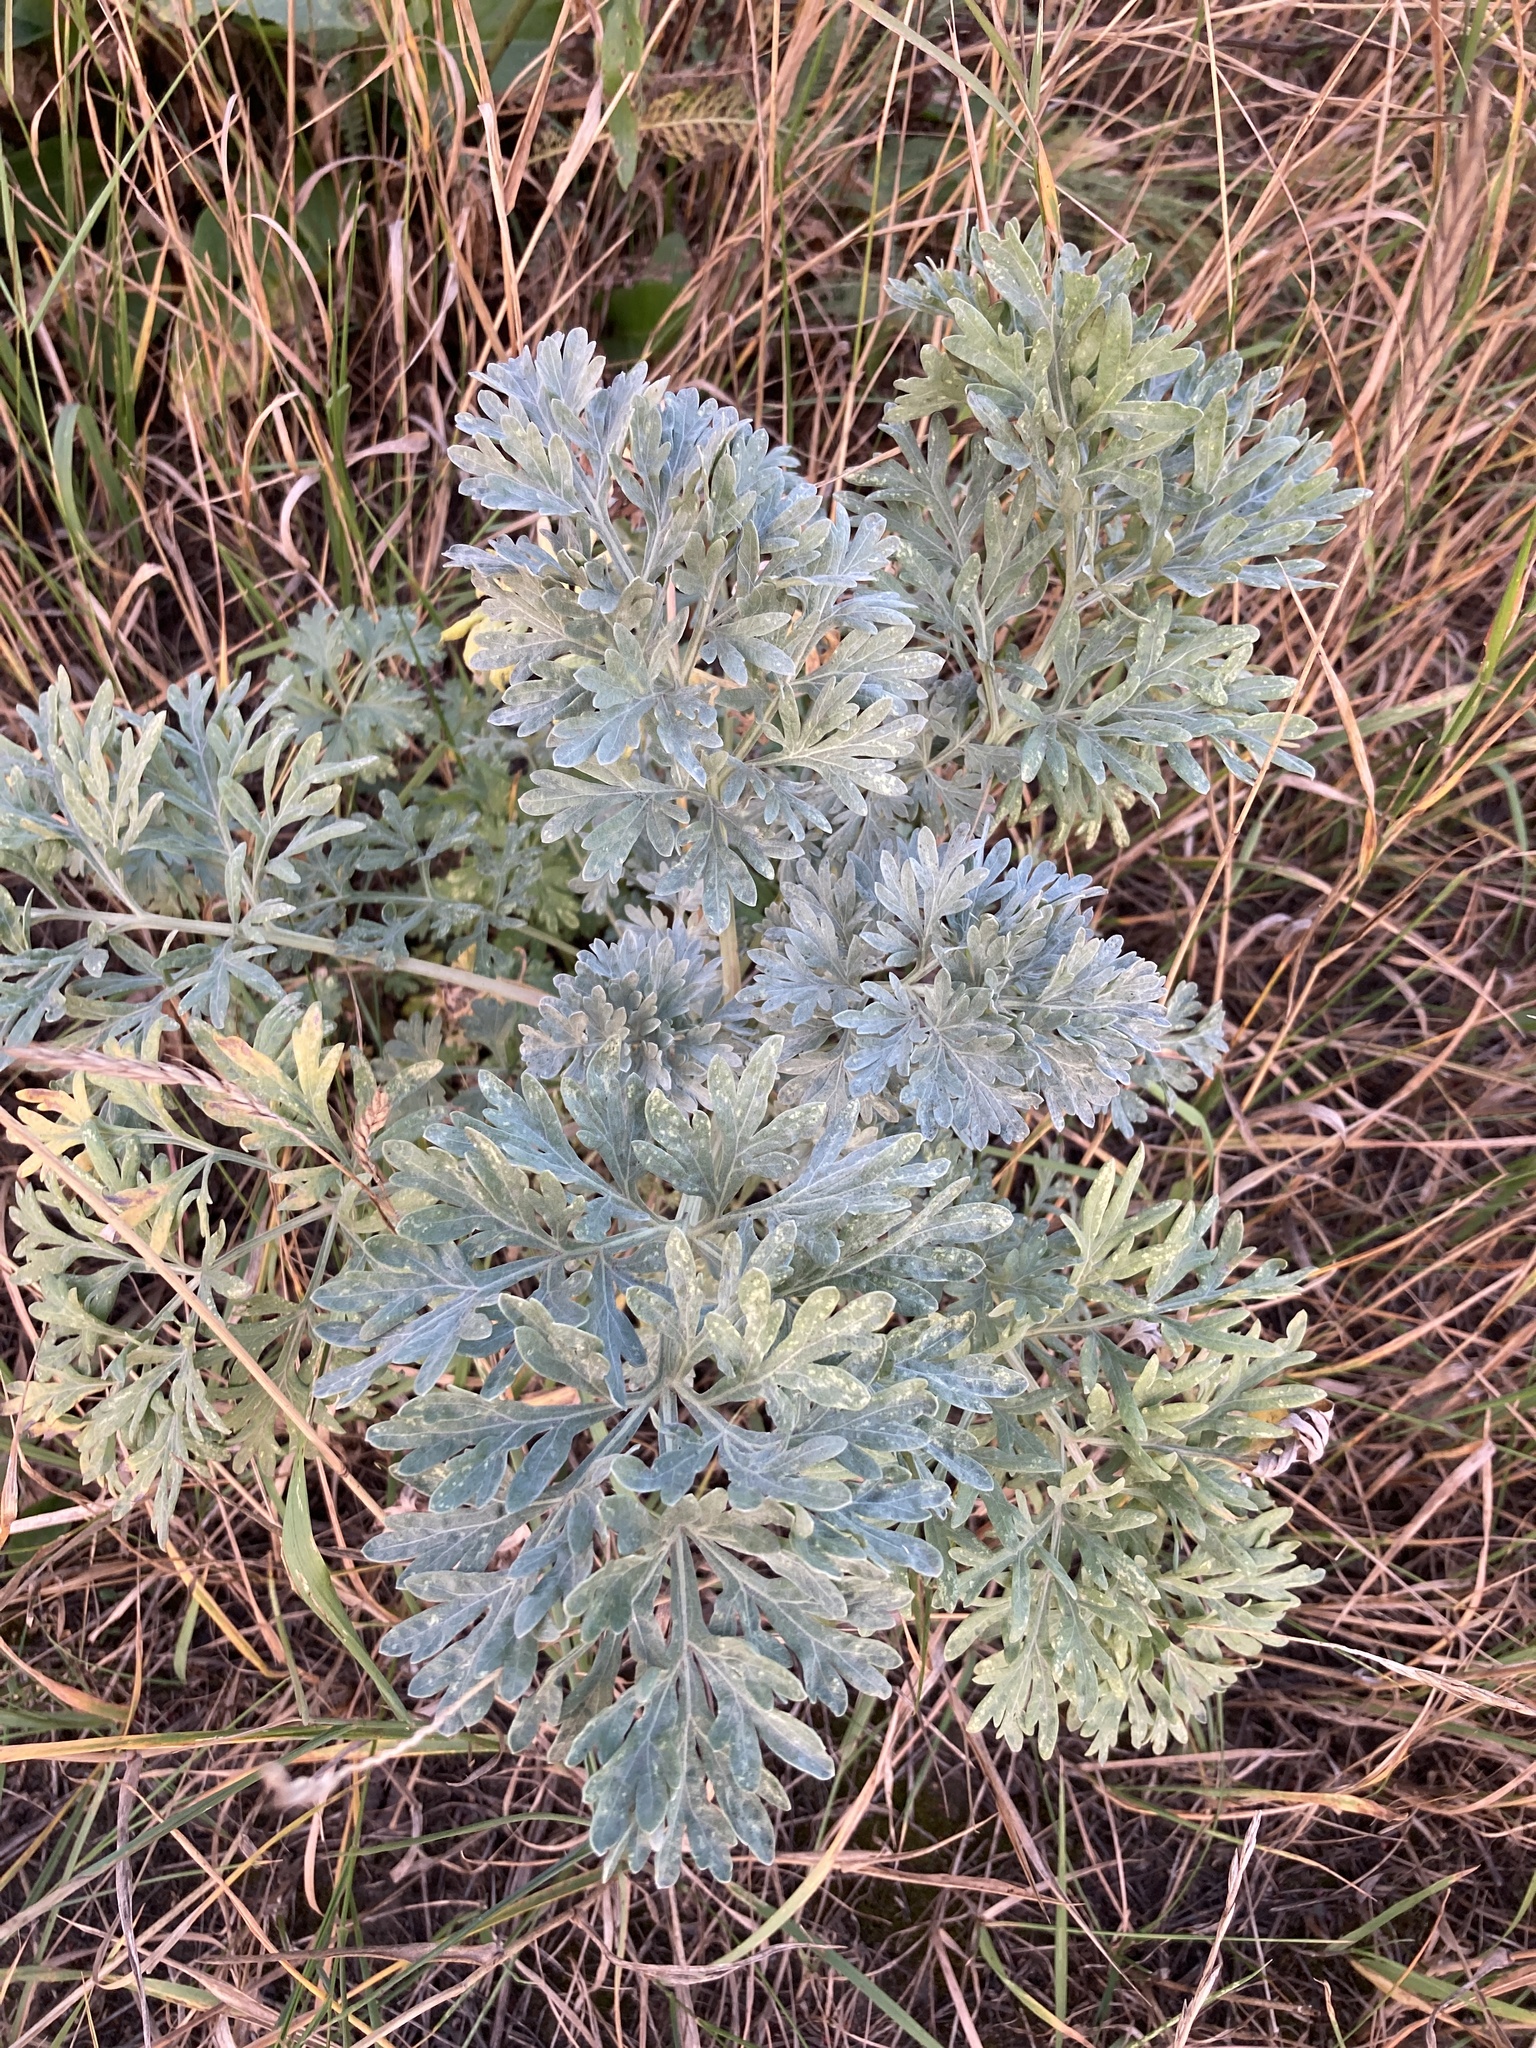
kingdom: Plantae
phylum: Tracheophyta
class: Magnoliopsida
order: Asterales
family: Asteraceae
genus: Artemisia
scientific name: Artemisia absinthium
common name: Wormwood
